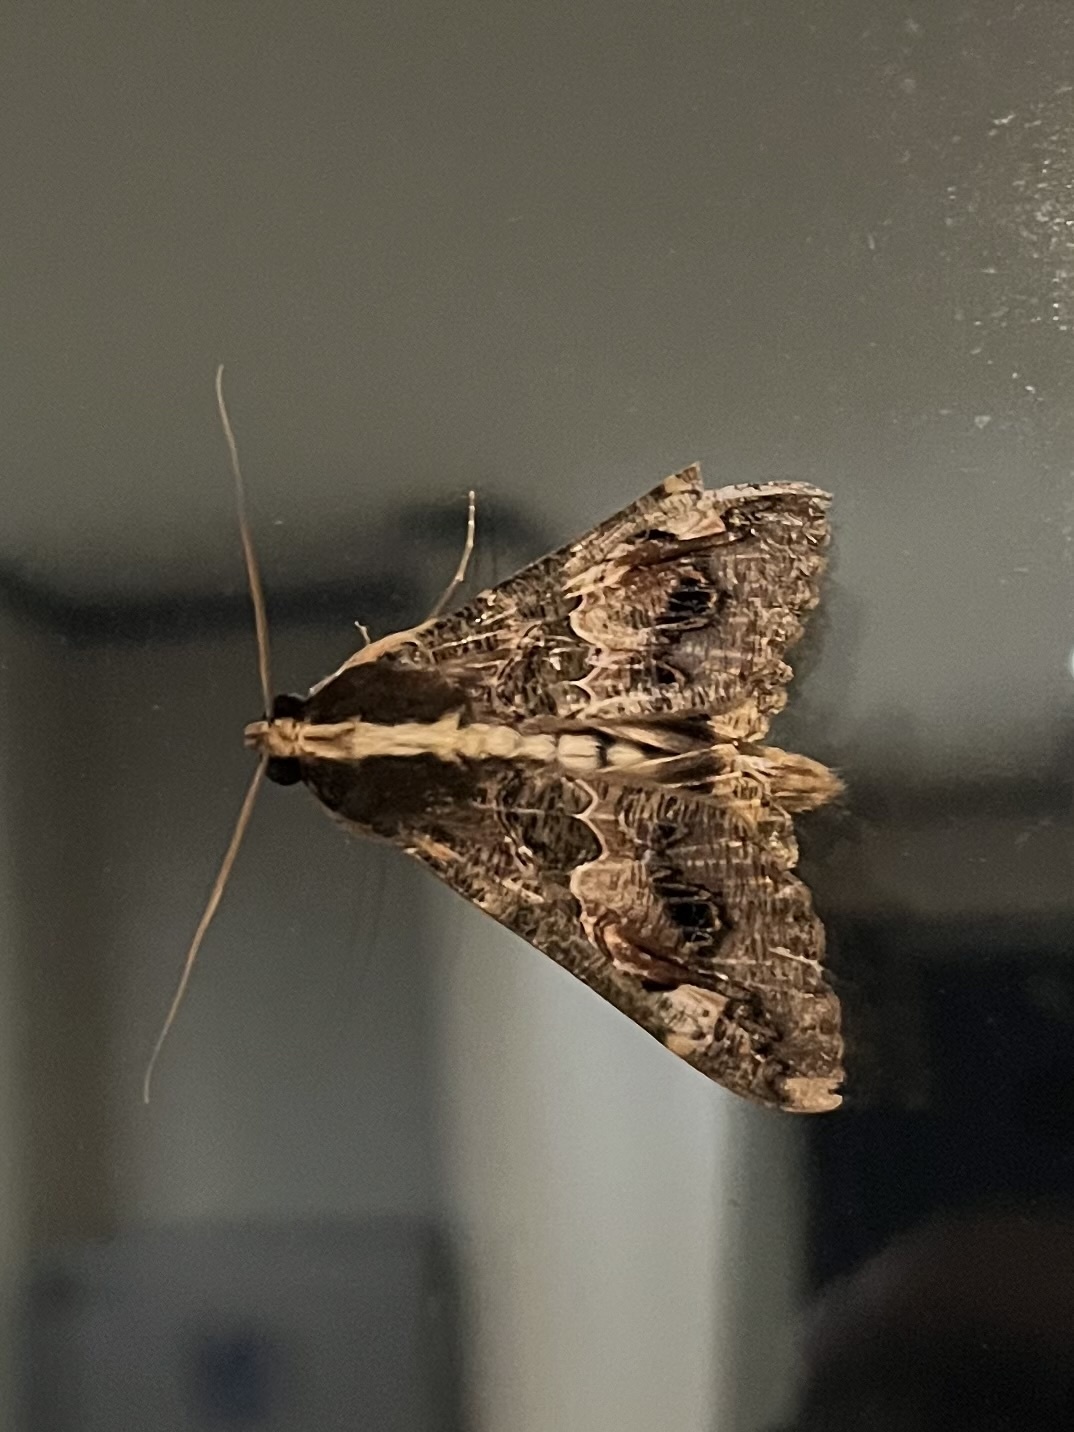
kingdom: Animalia
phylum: Arthropoda
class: Insecta
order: Lepidoptera
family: Erebidae
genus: Sphingomorpha
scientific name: Sphingomorpha chlorea
